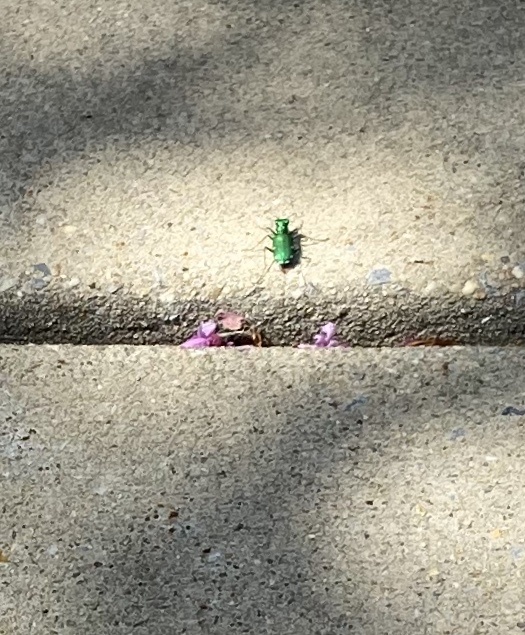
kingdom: Animalia
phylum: Arthropoda
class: Insecta
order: Coleoptera
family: Carabidae
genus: Cicindela
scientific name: Cicindela sexguttata
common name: Six-spotted tiger beetle
